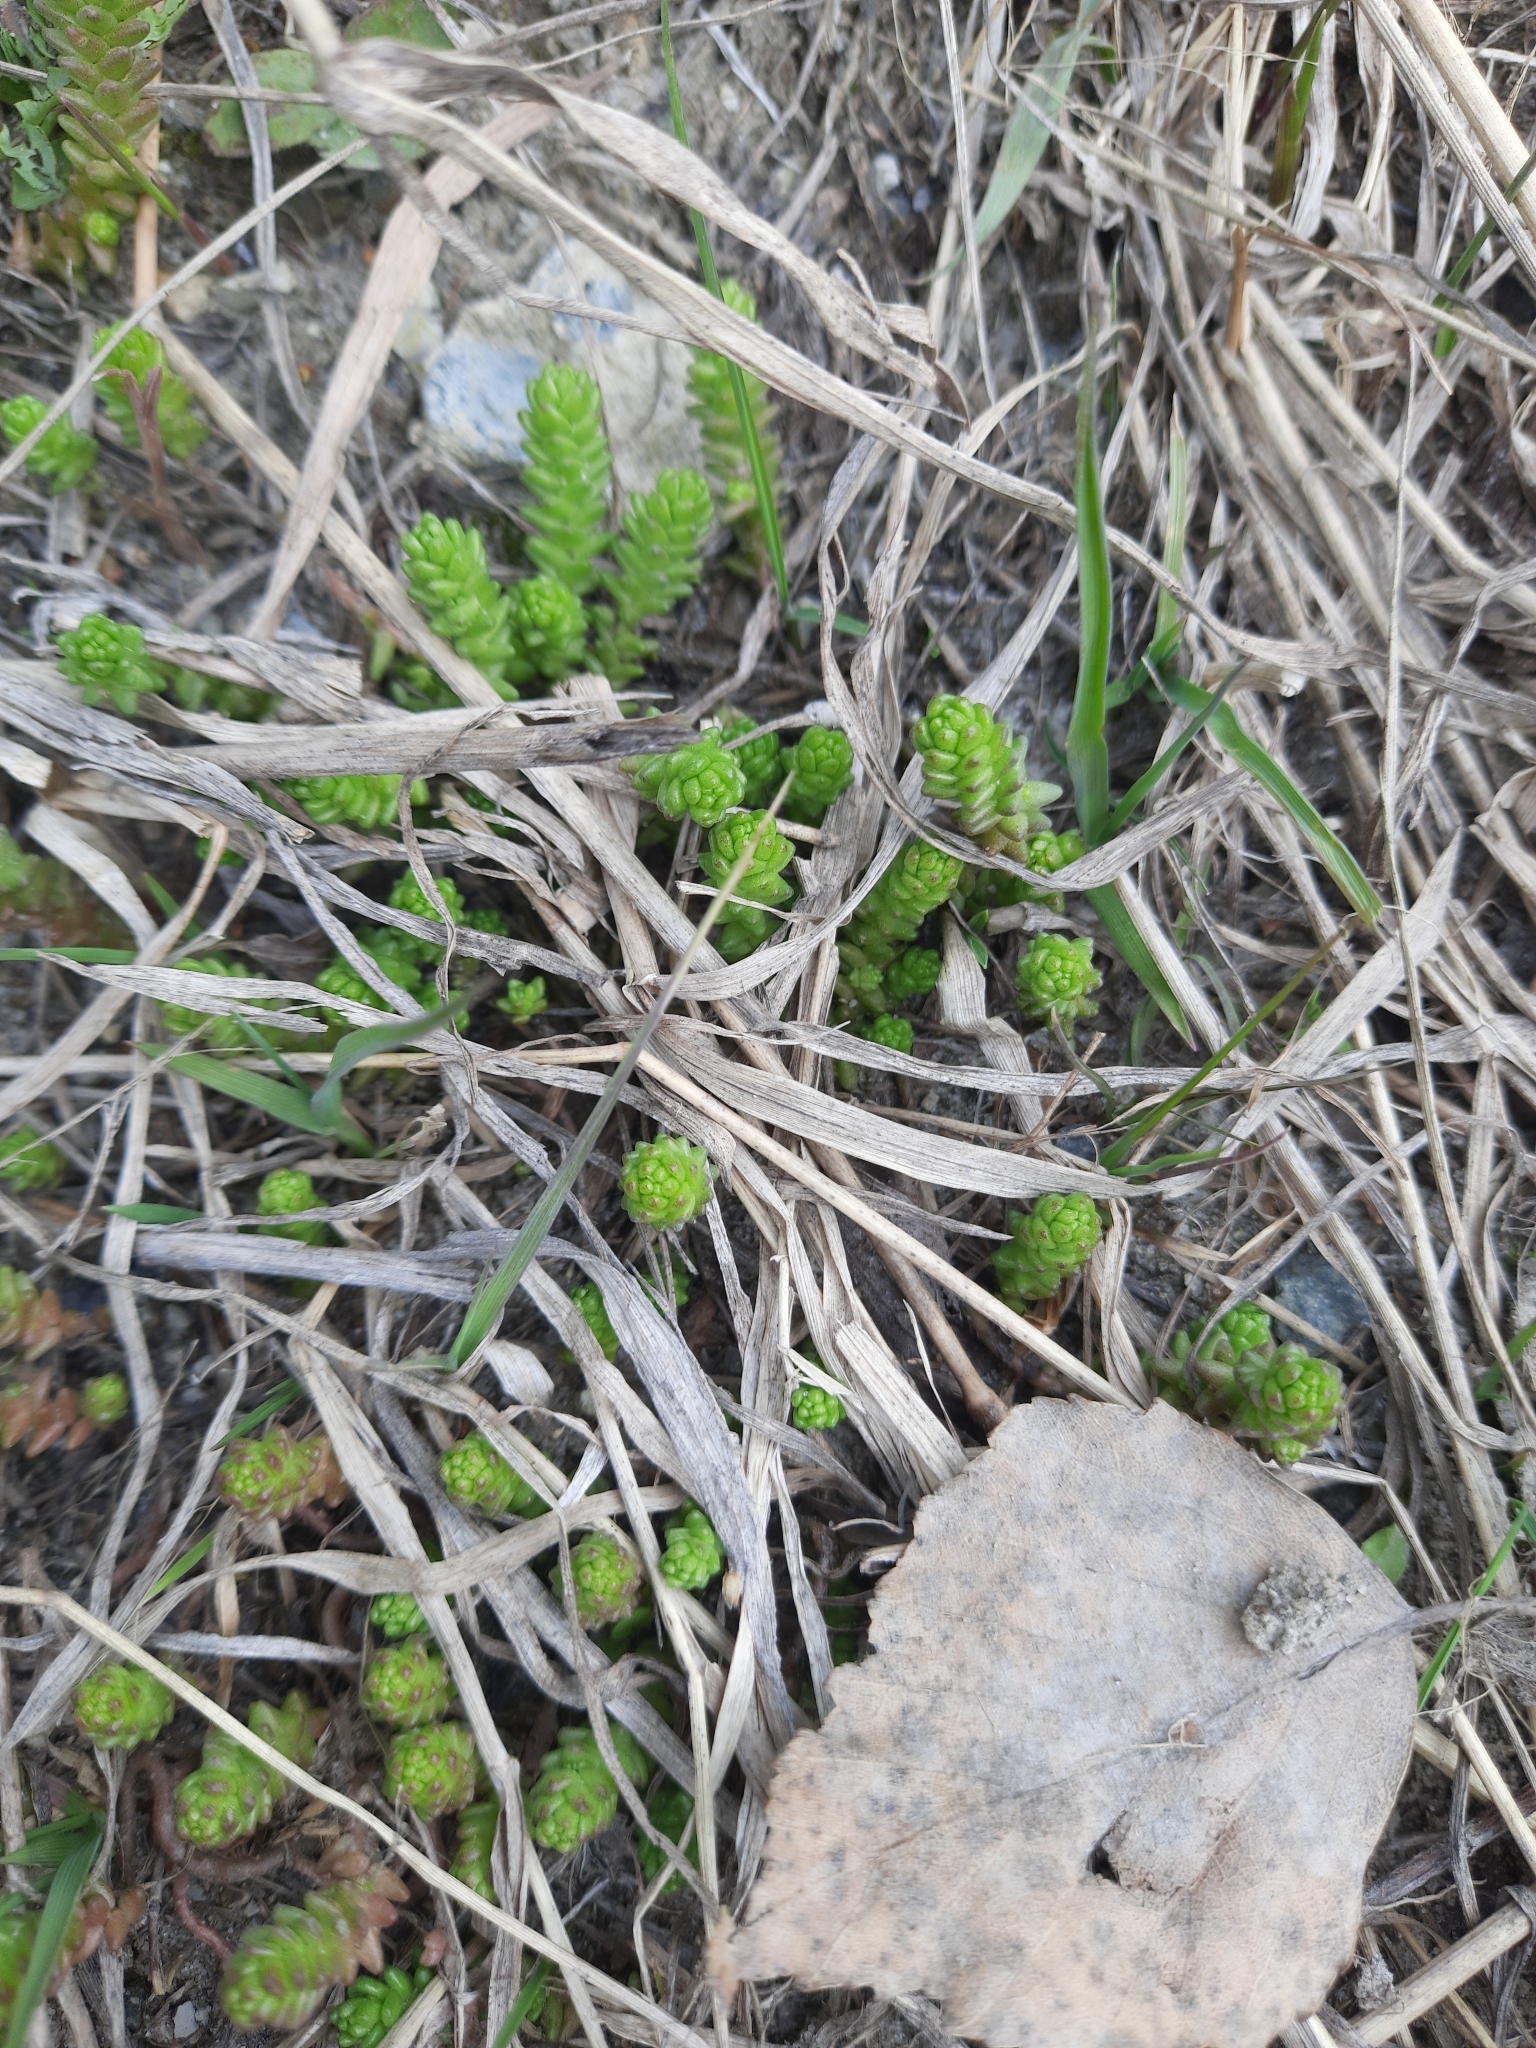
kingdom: Plantae
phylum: Tracheophyta
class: Magnoliopsida
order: Saxifragales
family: Crassulaceae
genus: Sedum
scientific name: Sedum acre
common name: Biting stonecrop
